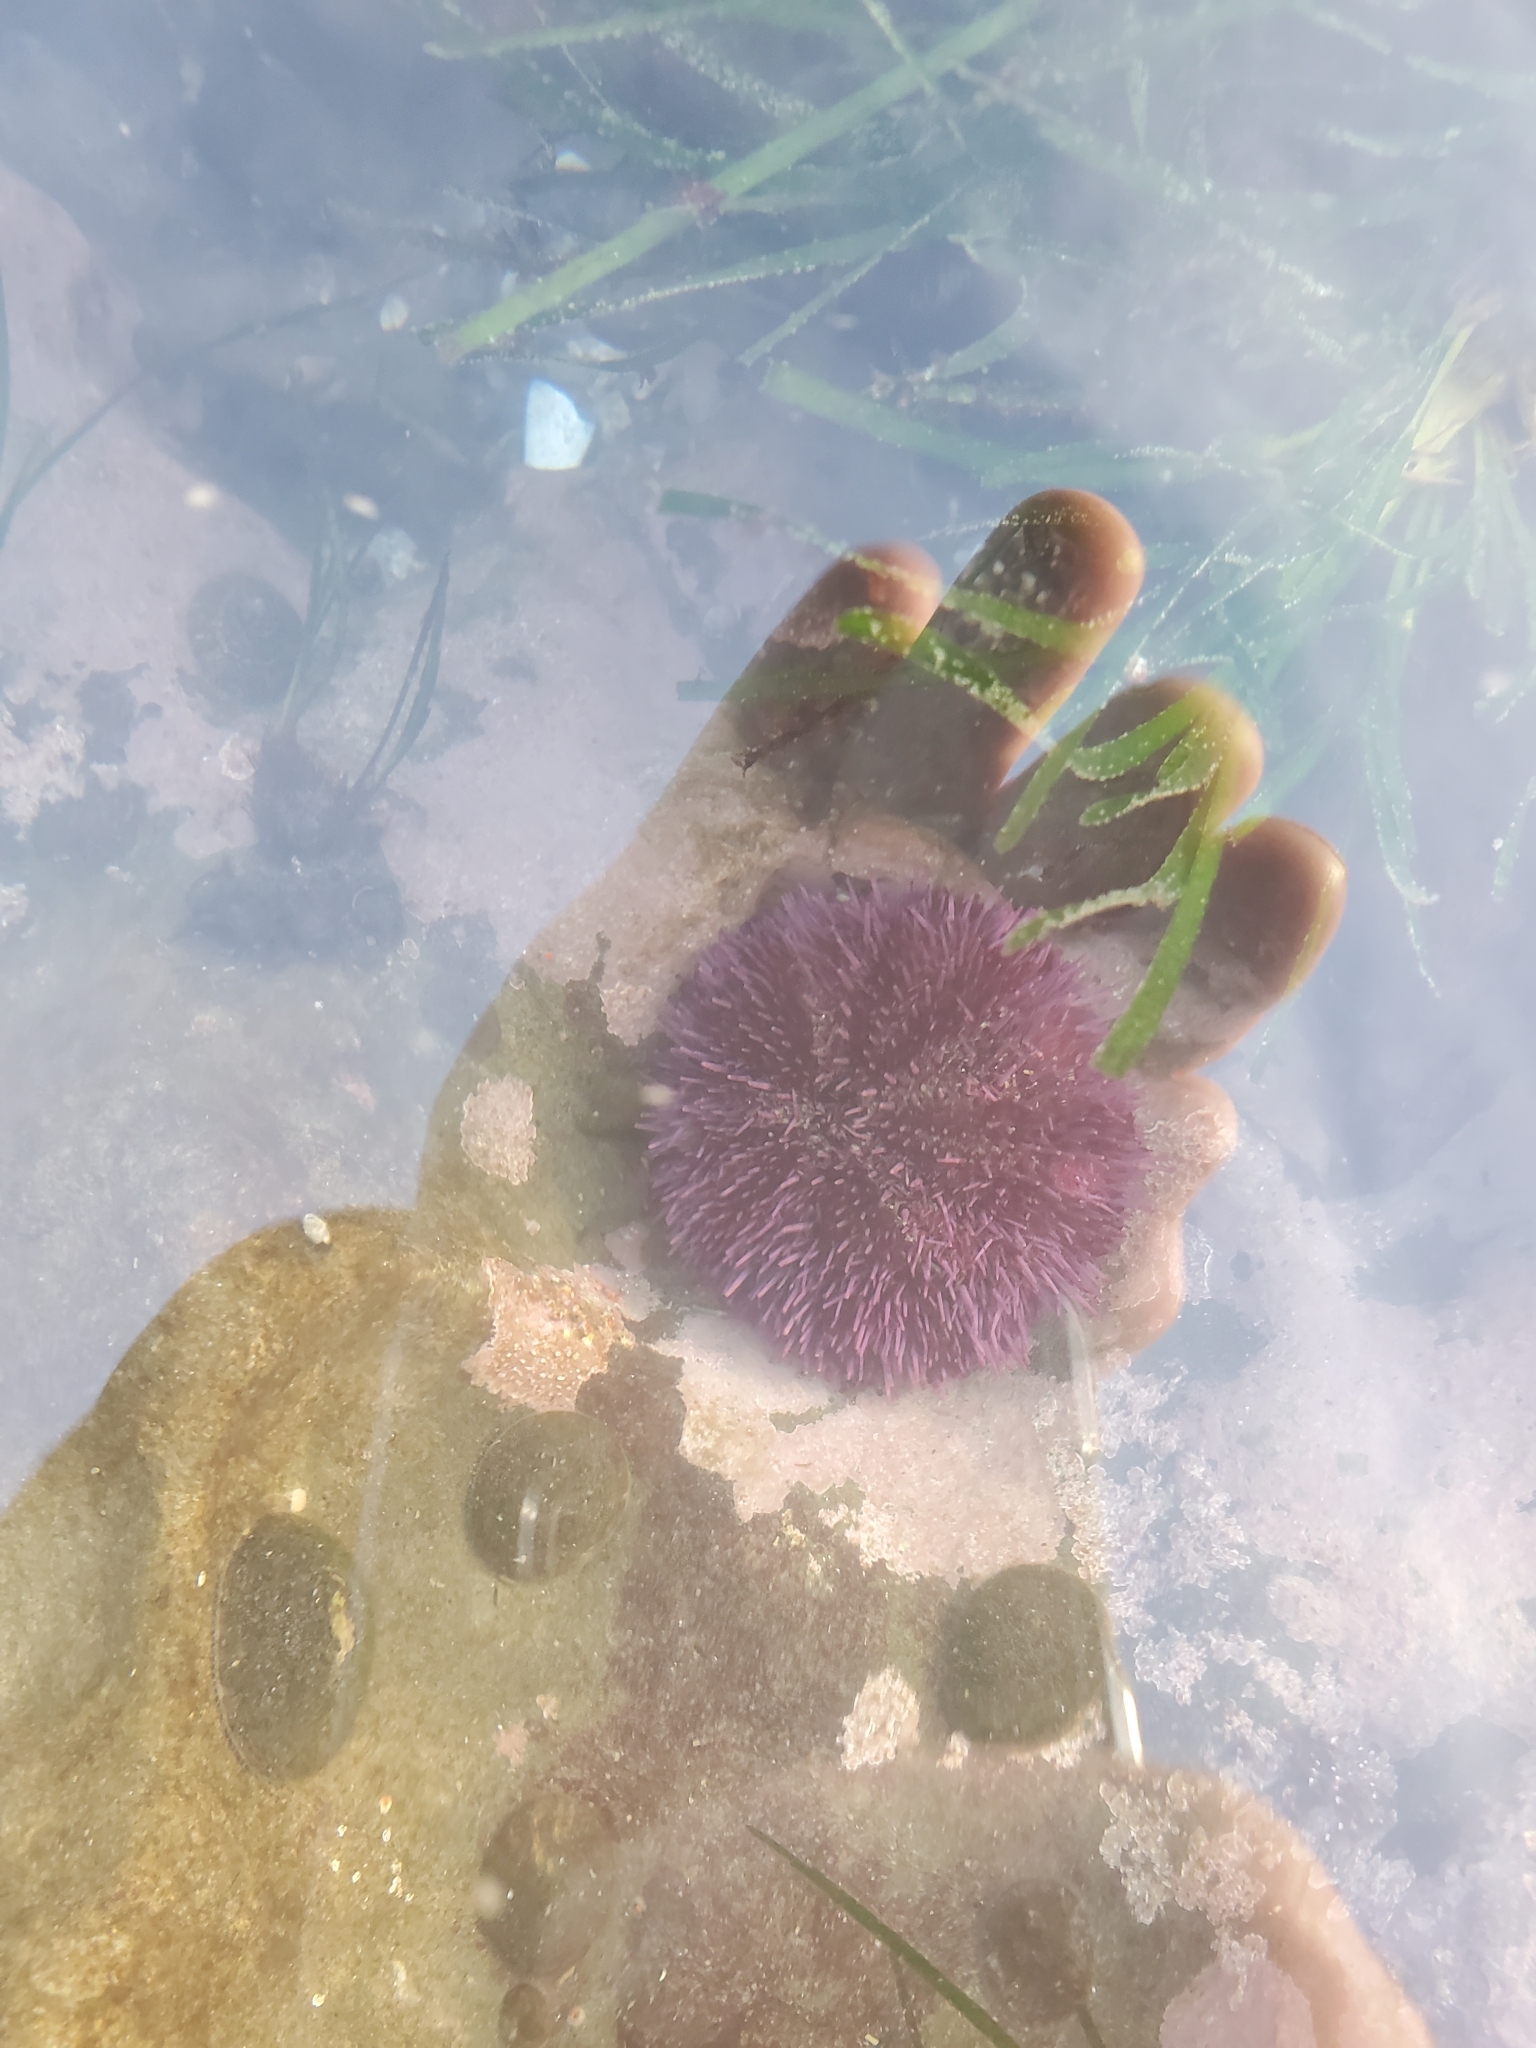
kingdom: Animalia
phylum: Echinodermata
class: Echinoidea
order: Camarodonta
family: Strongylocentrotidae
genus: Strongylocentrotus
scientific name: Strongylocentrotus purpuratus
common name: Purple sea urchin
